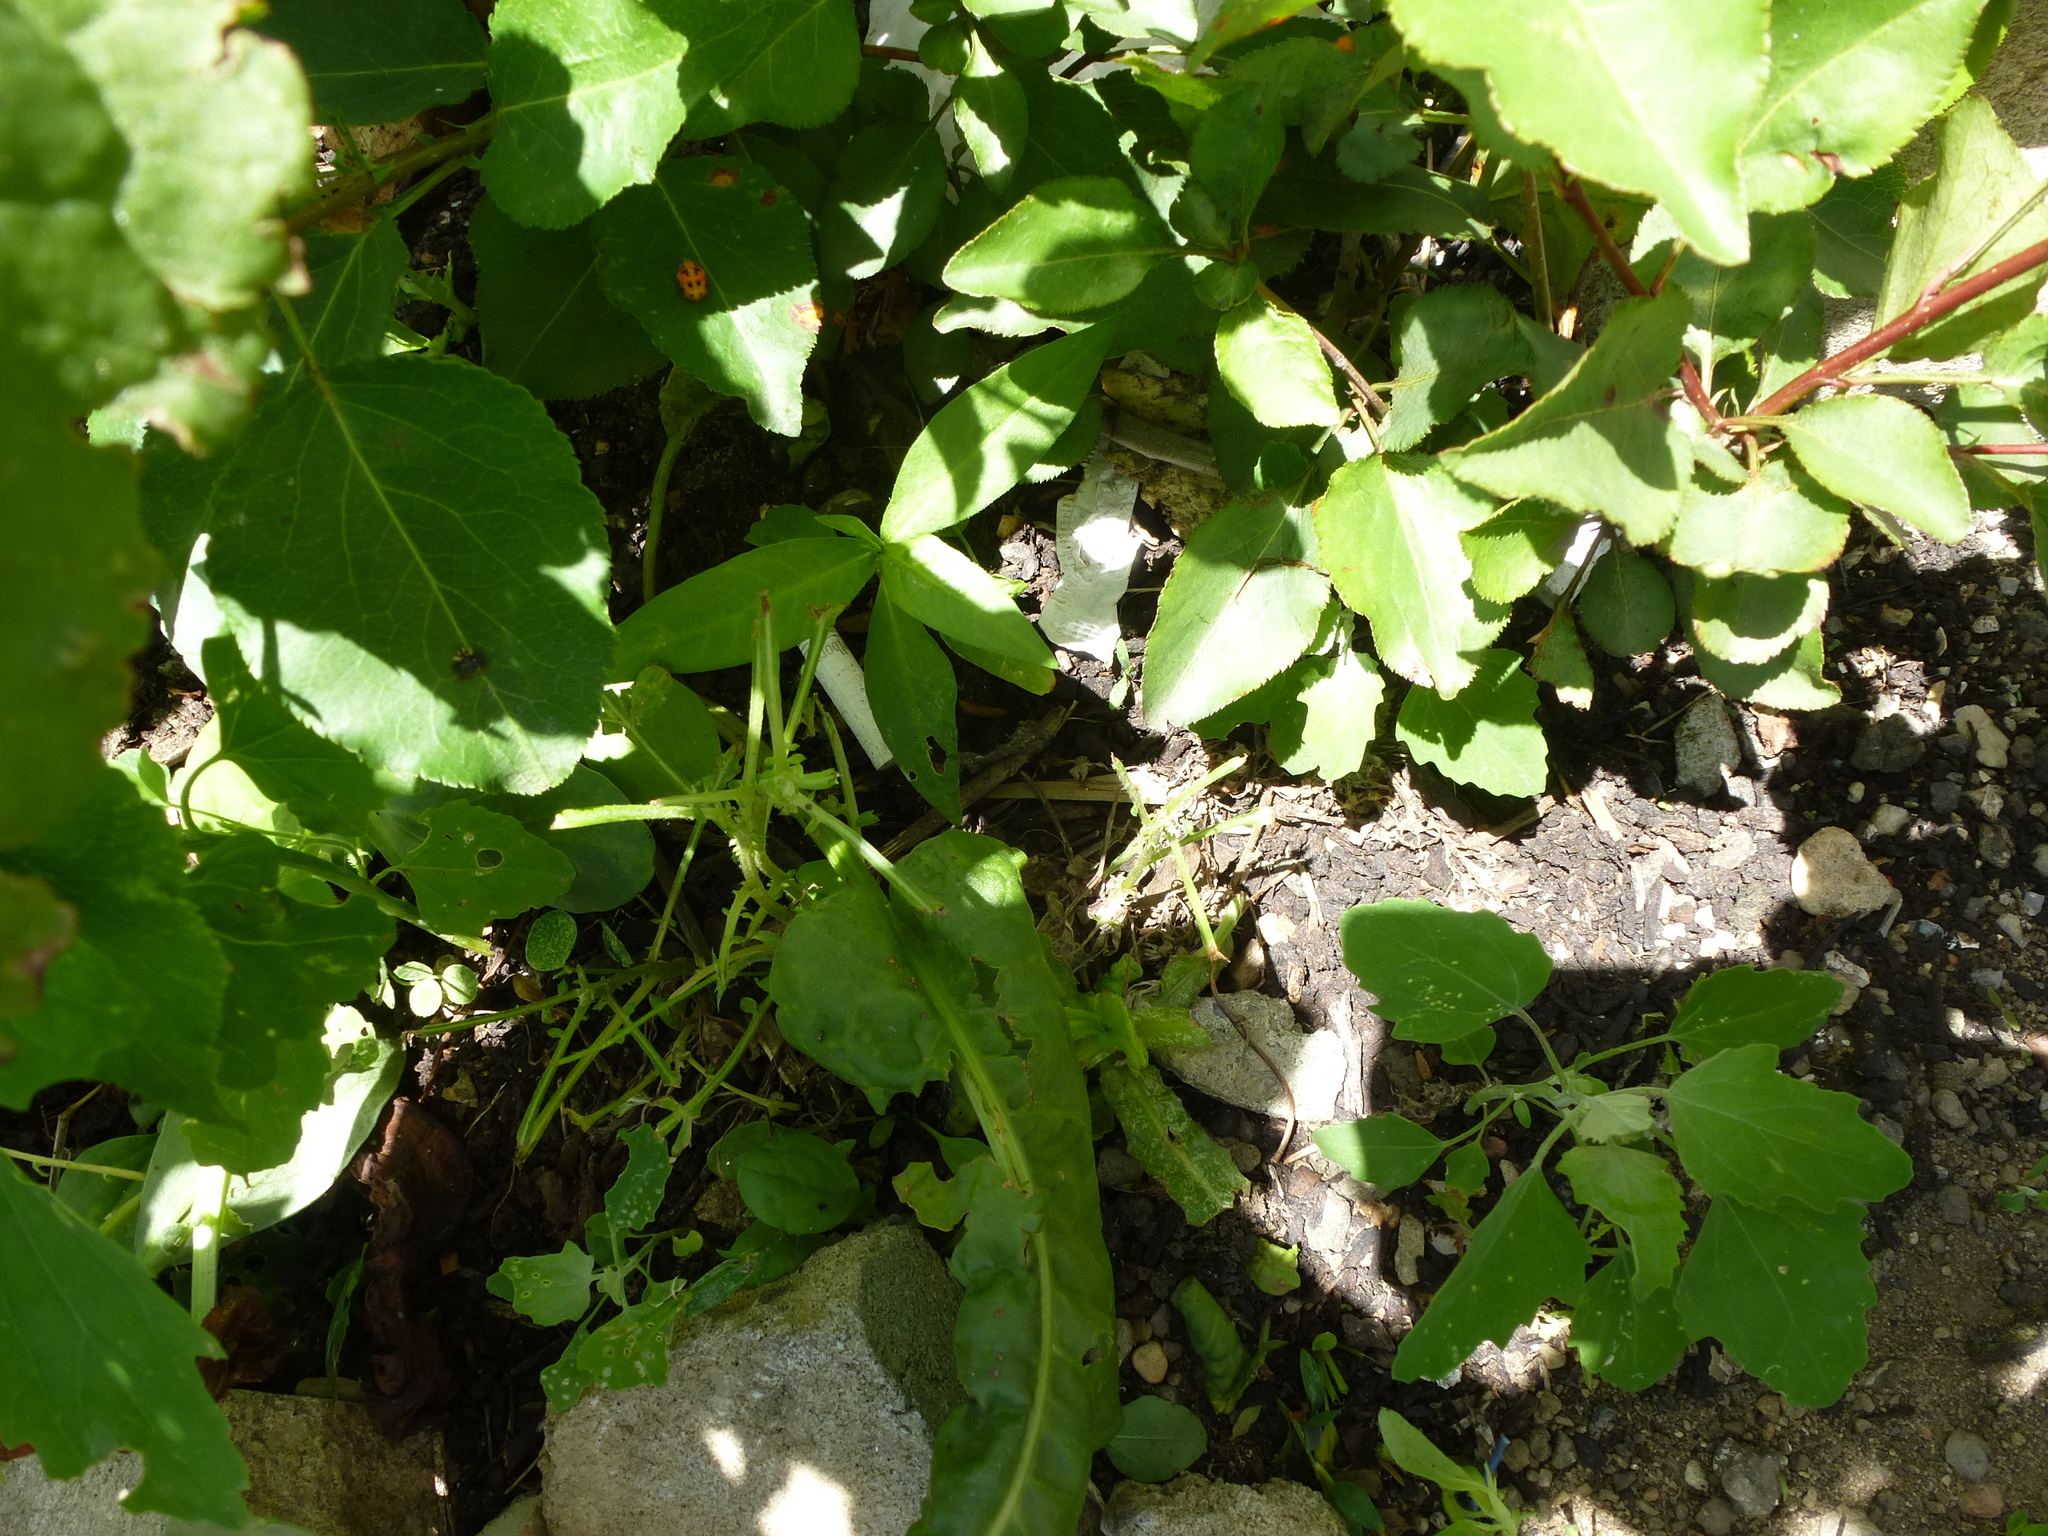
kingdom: Animalia
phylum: Chordata
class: Aves
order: Anseriformes
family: Anatidae
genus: Branta
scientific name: Branta canadensis
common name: Canada goose
